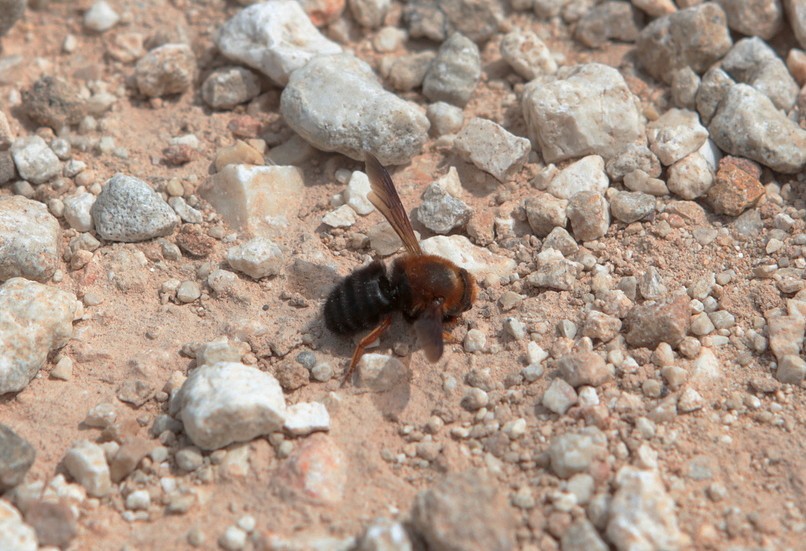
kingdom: Animalia
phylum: Arthropoda
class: Insecta
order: Hymenoptera
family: Megachilidae
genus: Megachile
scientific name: Megachile sicula
